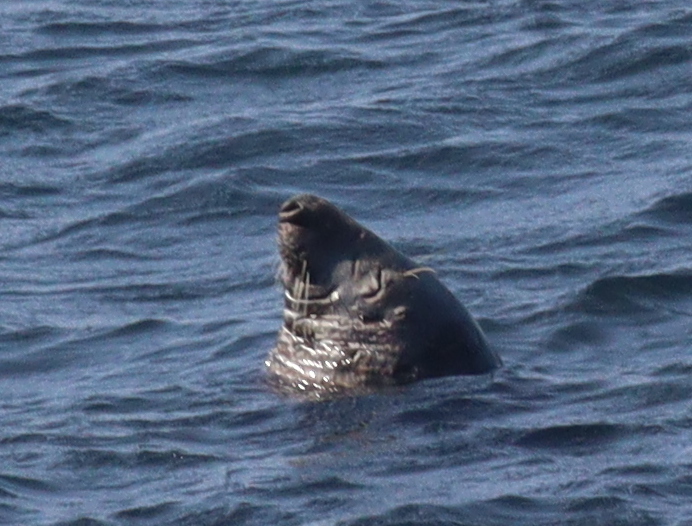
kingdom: Animalia
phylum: Chordata
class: Mammalia
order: Carnivora
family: Phocidae
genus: Halichoerus
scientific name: Halichoerus grypus
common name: Grey seal
